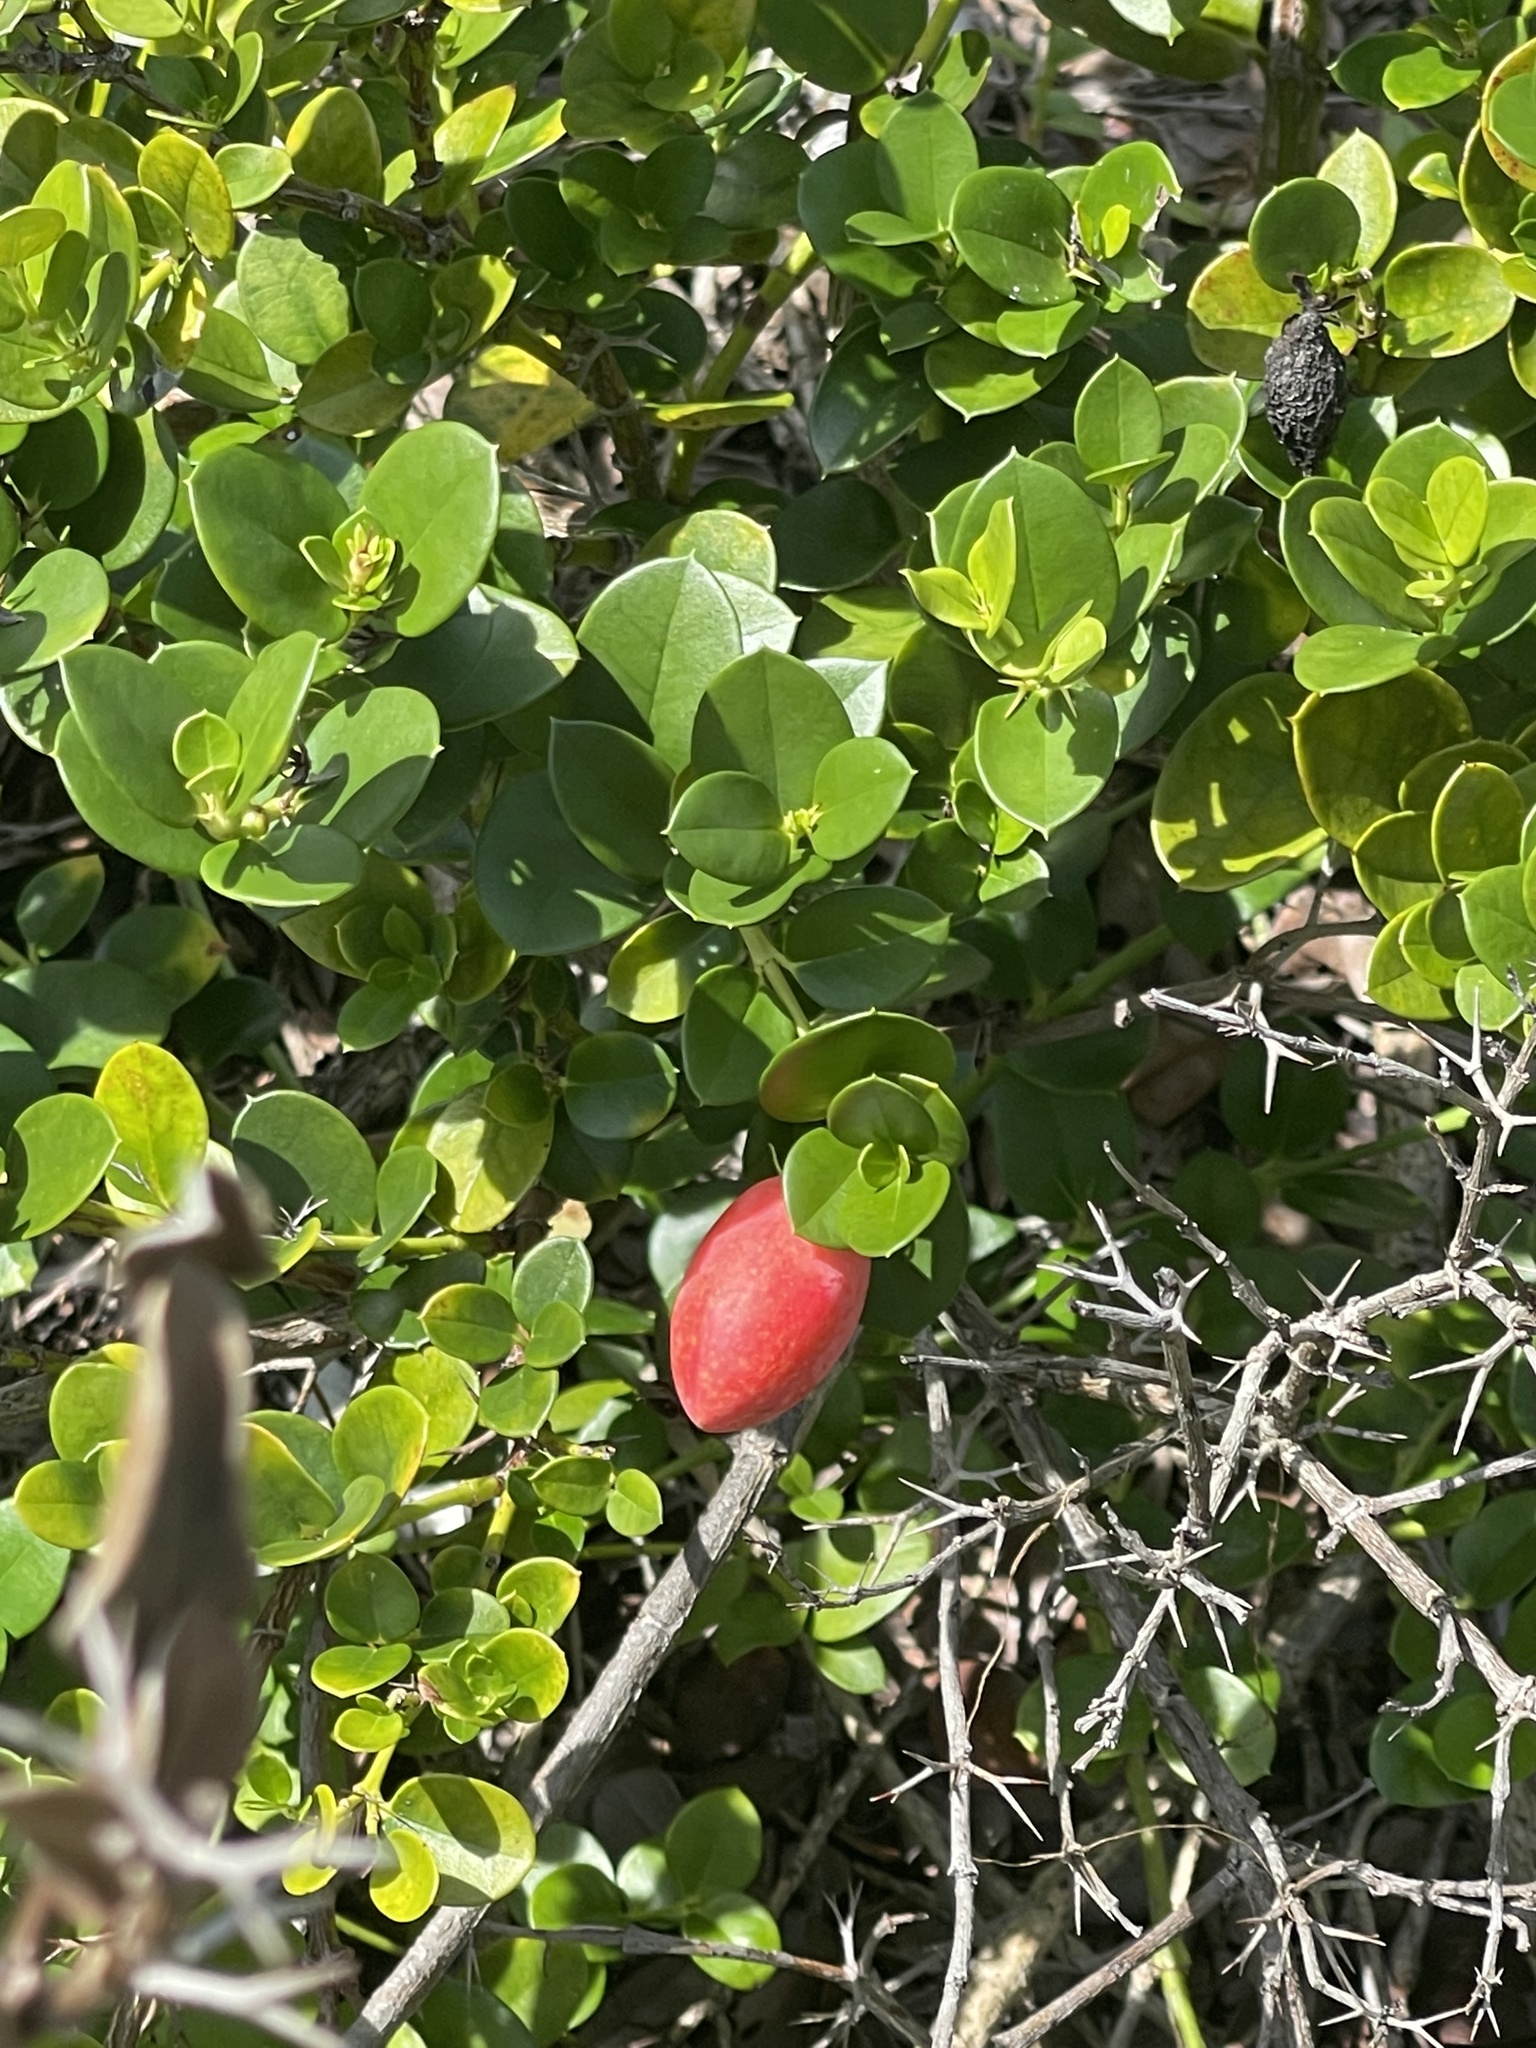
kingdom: Plantae
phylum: Tracheophyta
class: Magnoliopsida
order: Gentianales
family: Apocynaceae
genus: Carissa
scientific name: Carissa macrocarpa
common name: Natal plum
